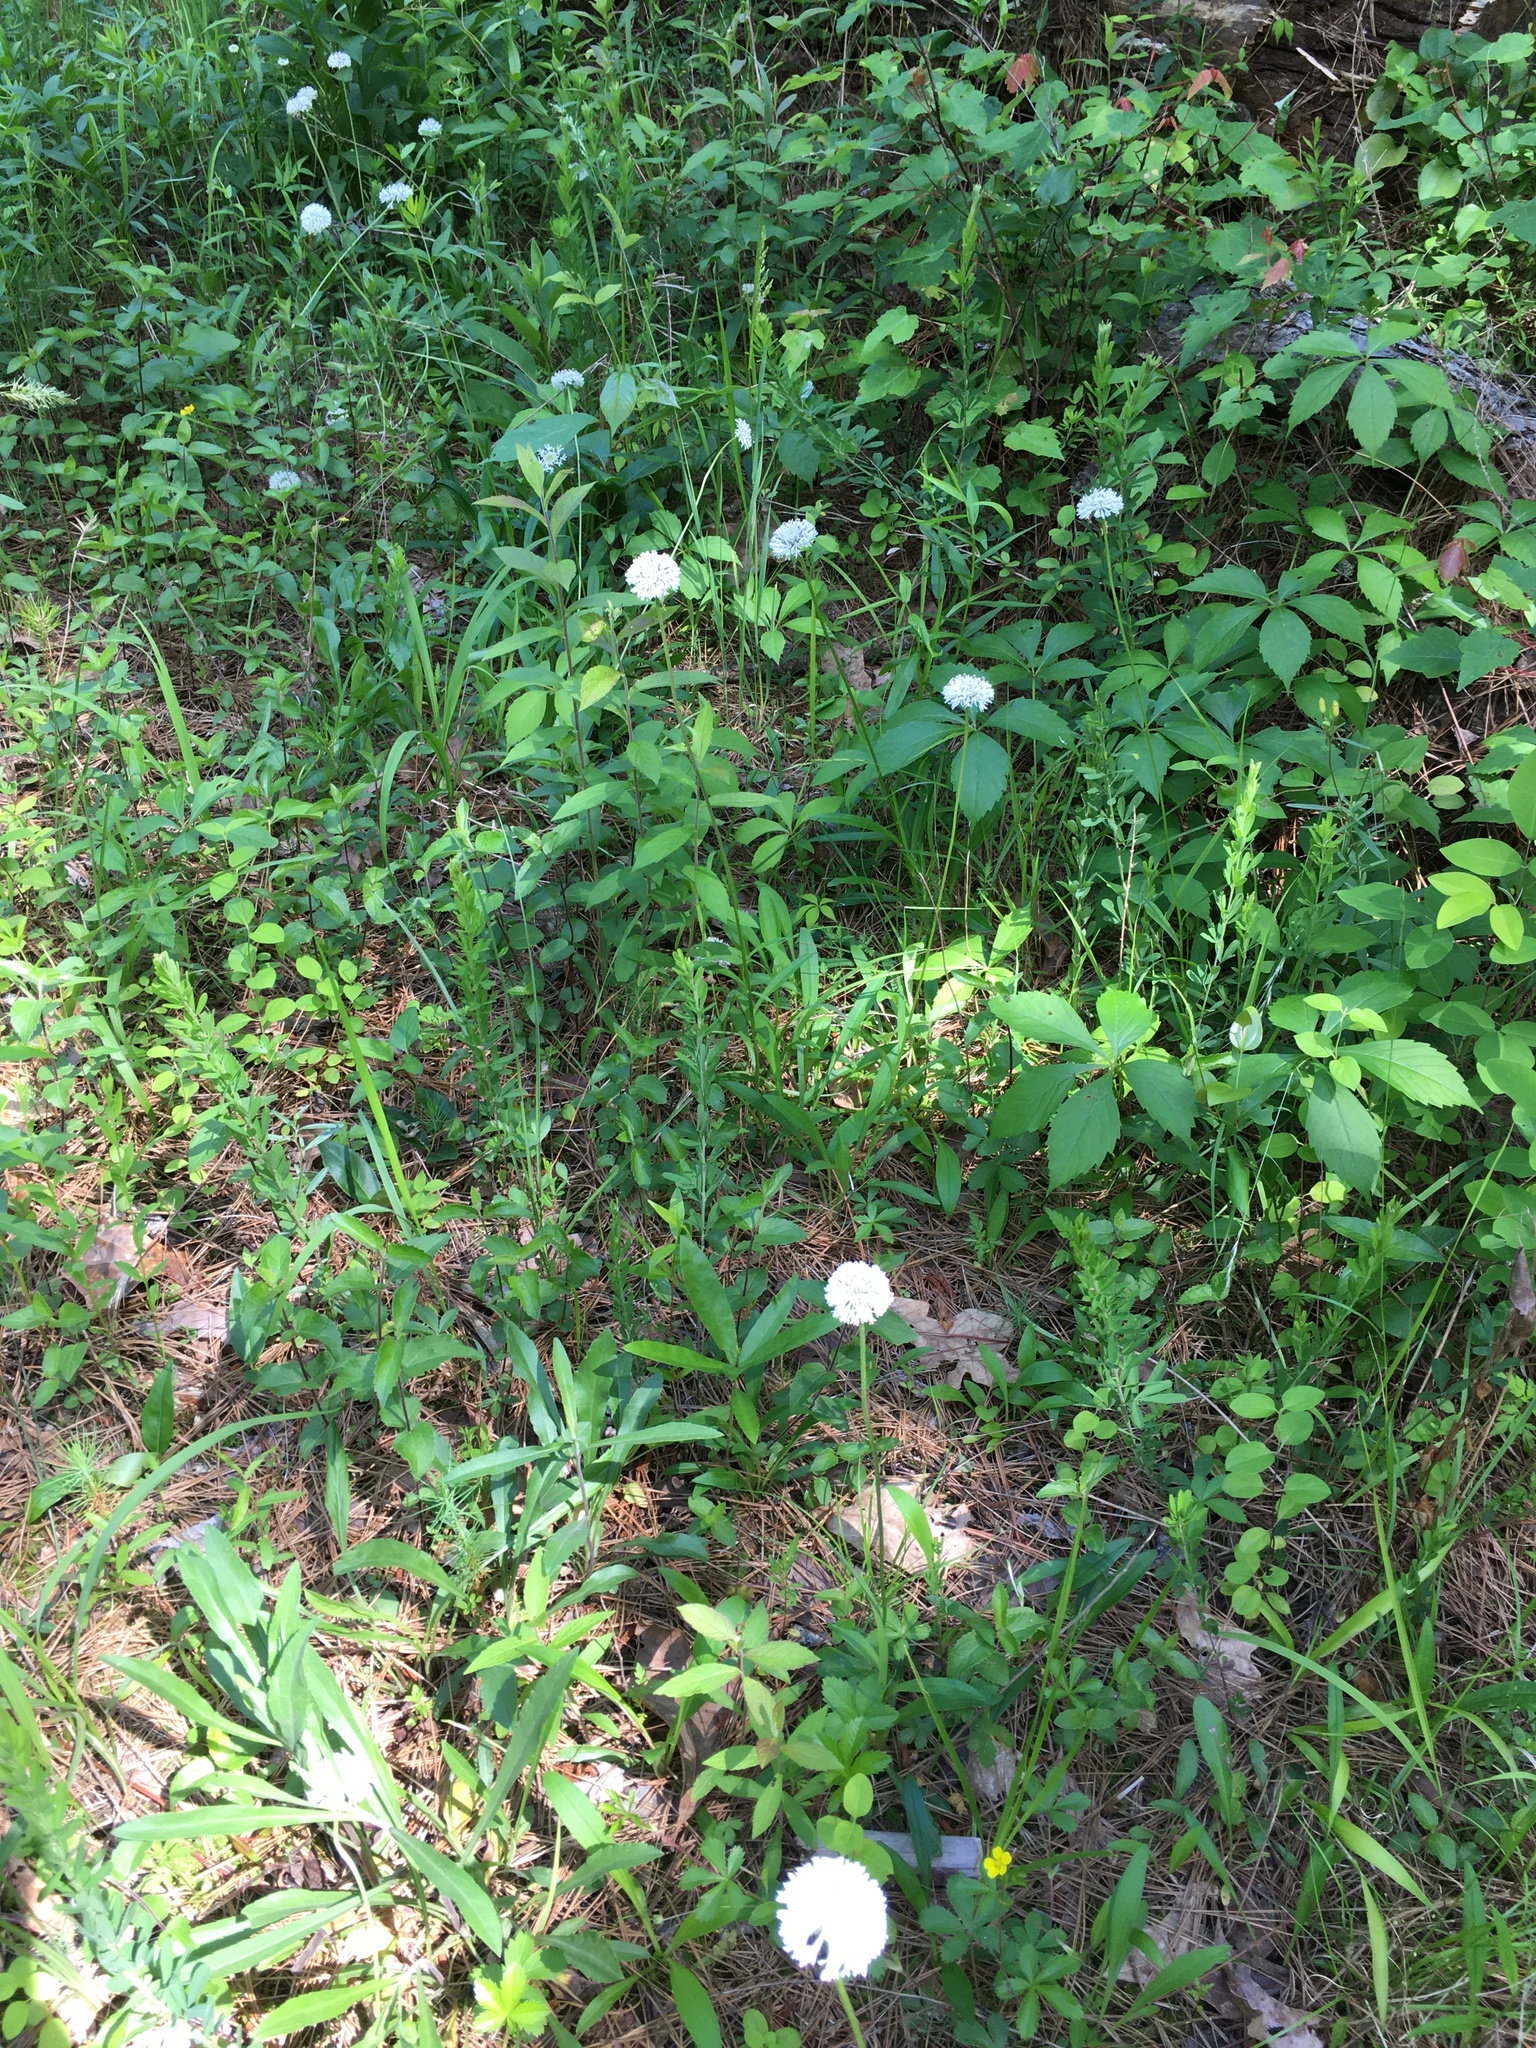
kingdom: Plantae
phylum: Tracheophyta
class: Magnoliopsida
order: Asterales
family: Asteraceae
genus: Marshallia
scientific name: Marshallia obovata
